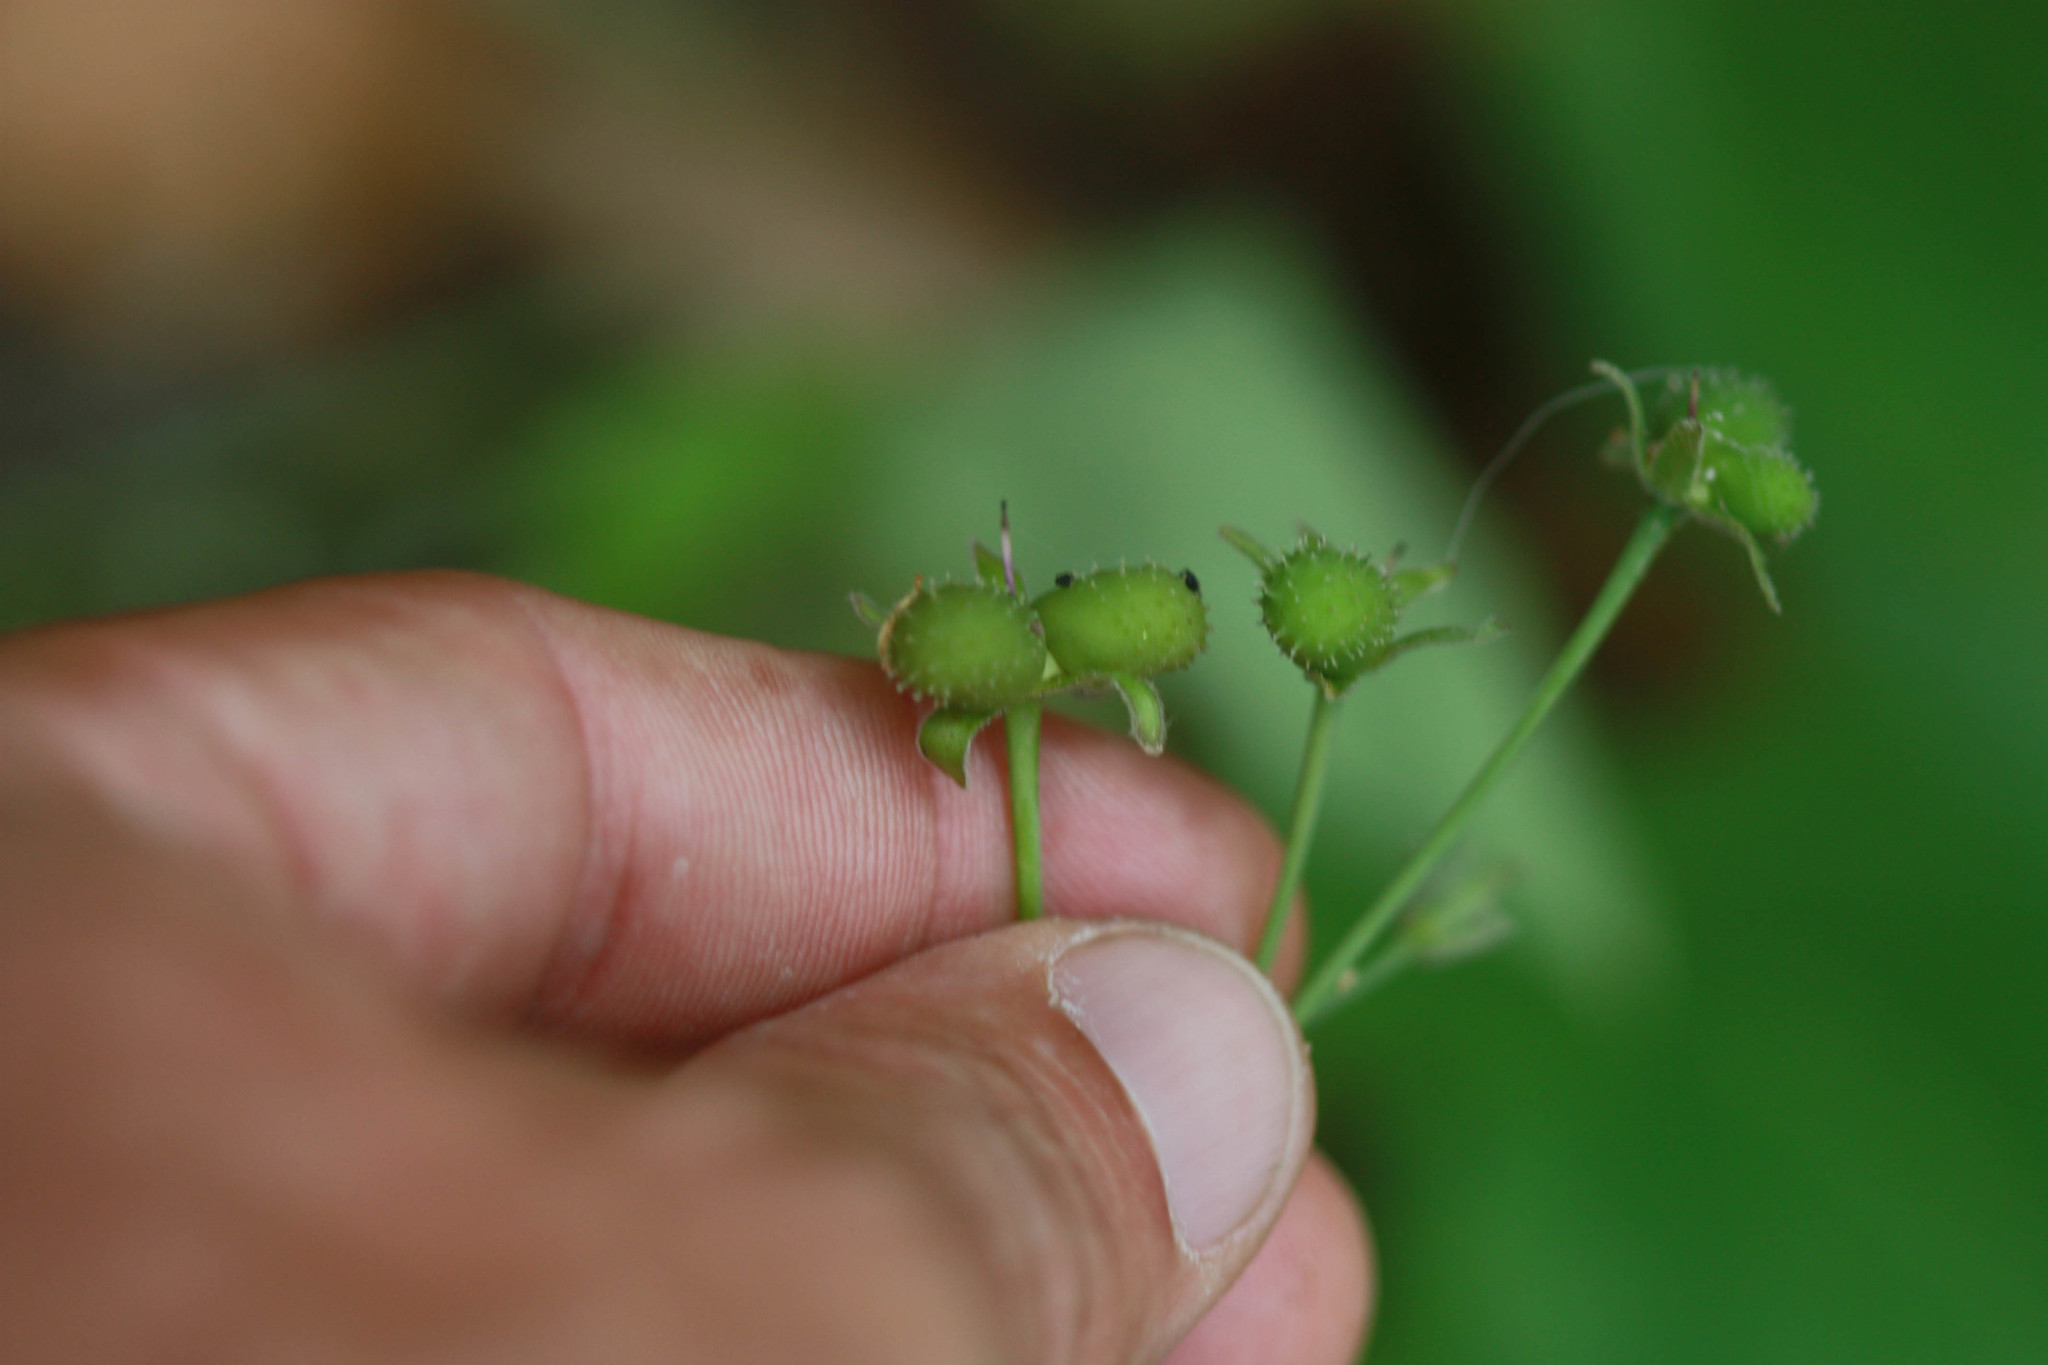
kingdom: Plantae
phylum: Tracheophyta
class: Magnoliopsida
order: Boraginales
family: Boraginaceae
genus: Adelinia
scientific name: Adelinia grande
